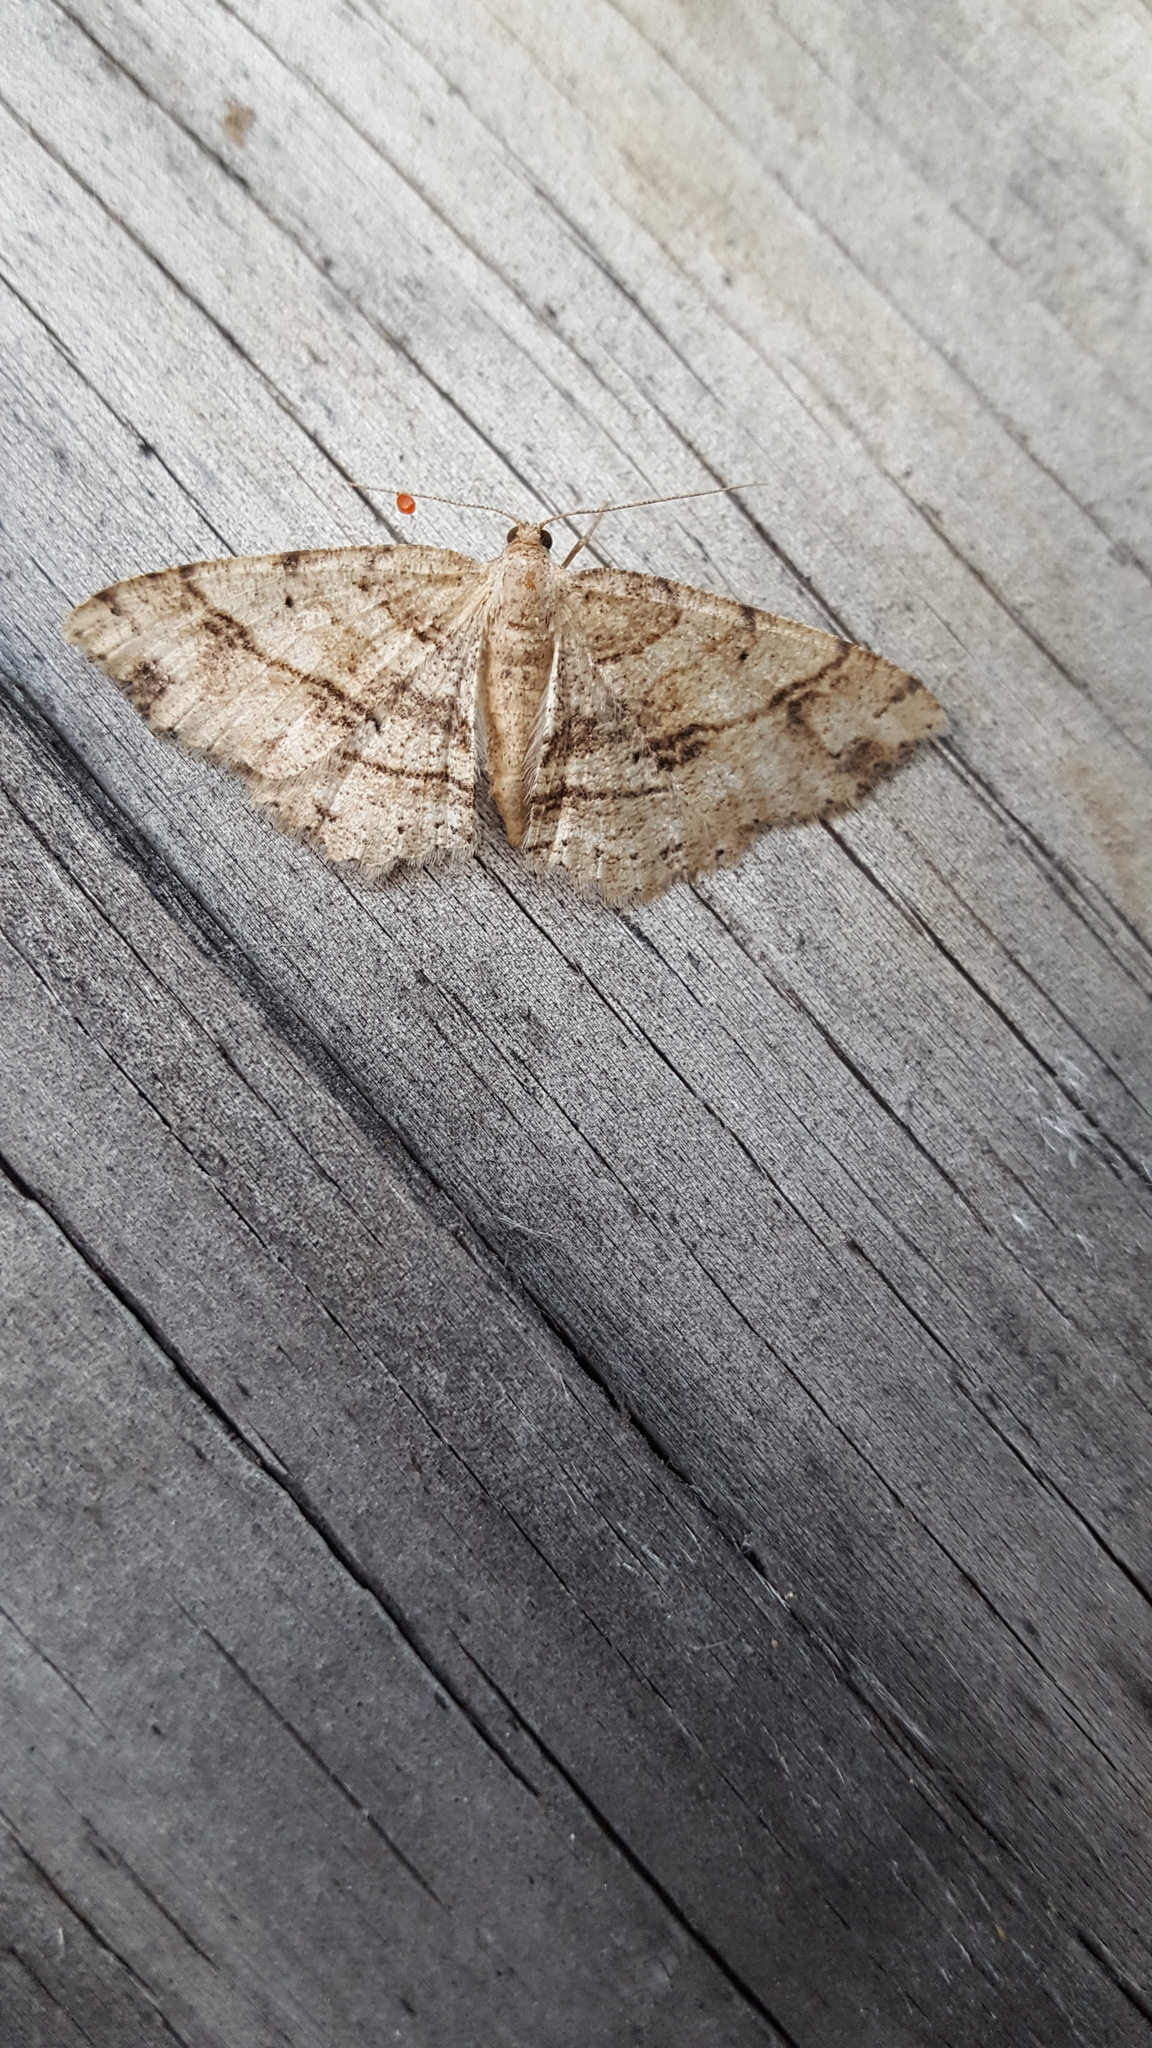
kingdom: Animalia
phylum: Arthropoda
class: Insecta
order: Lepidoptera
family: Geometridae
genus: Melanolophia
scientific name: Melanolophia canadaria
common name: Canadian melanolophia
